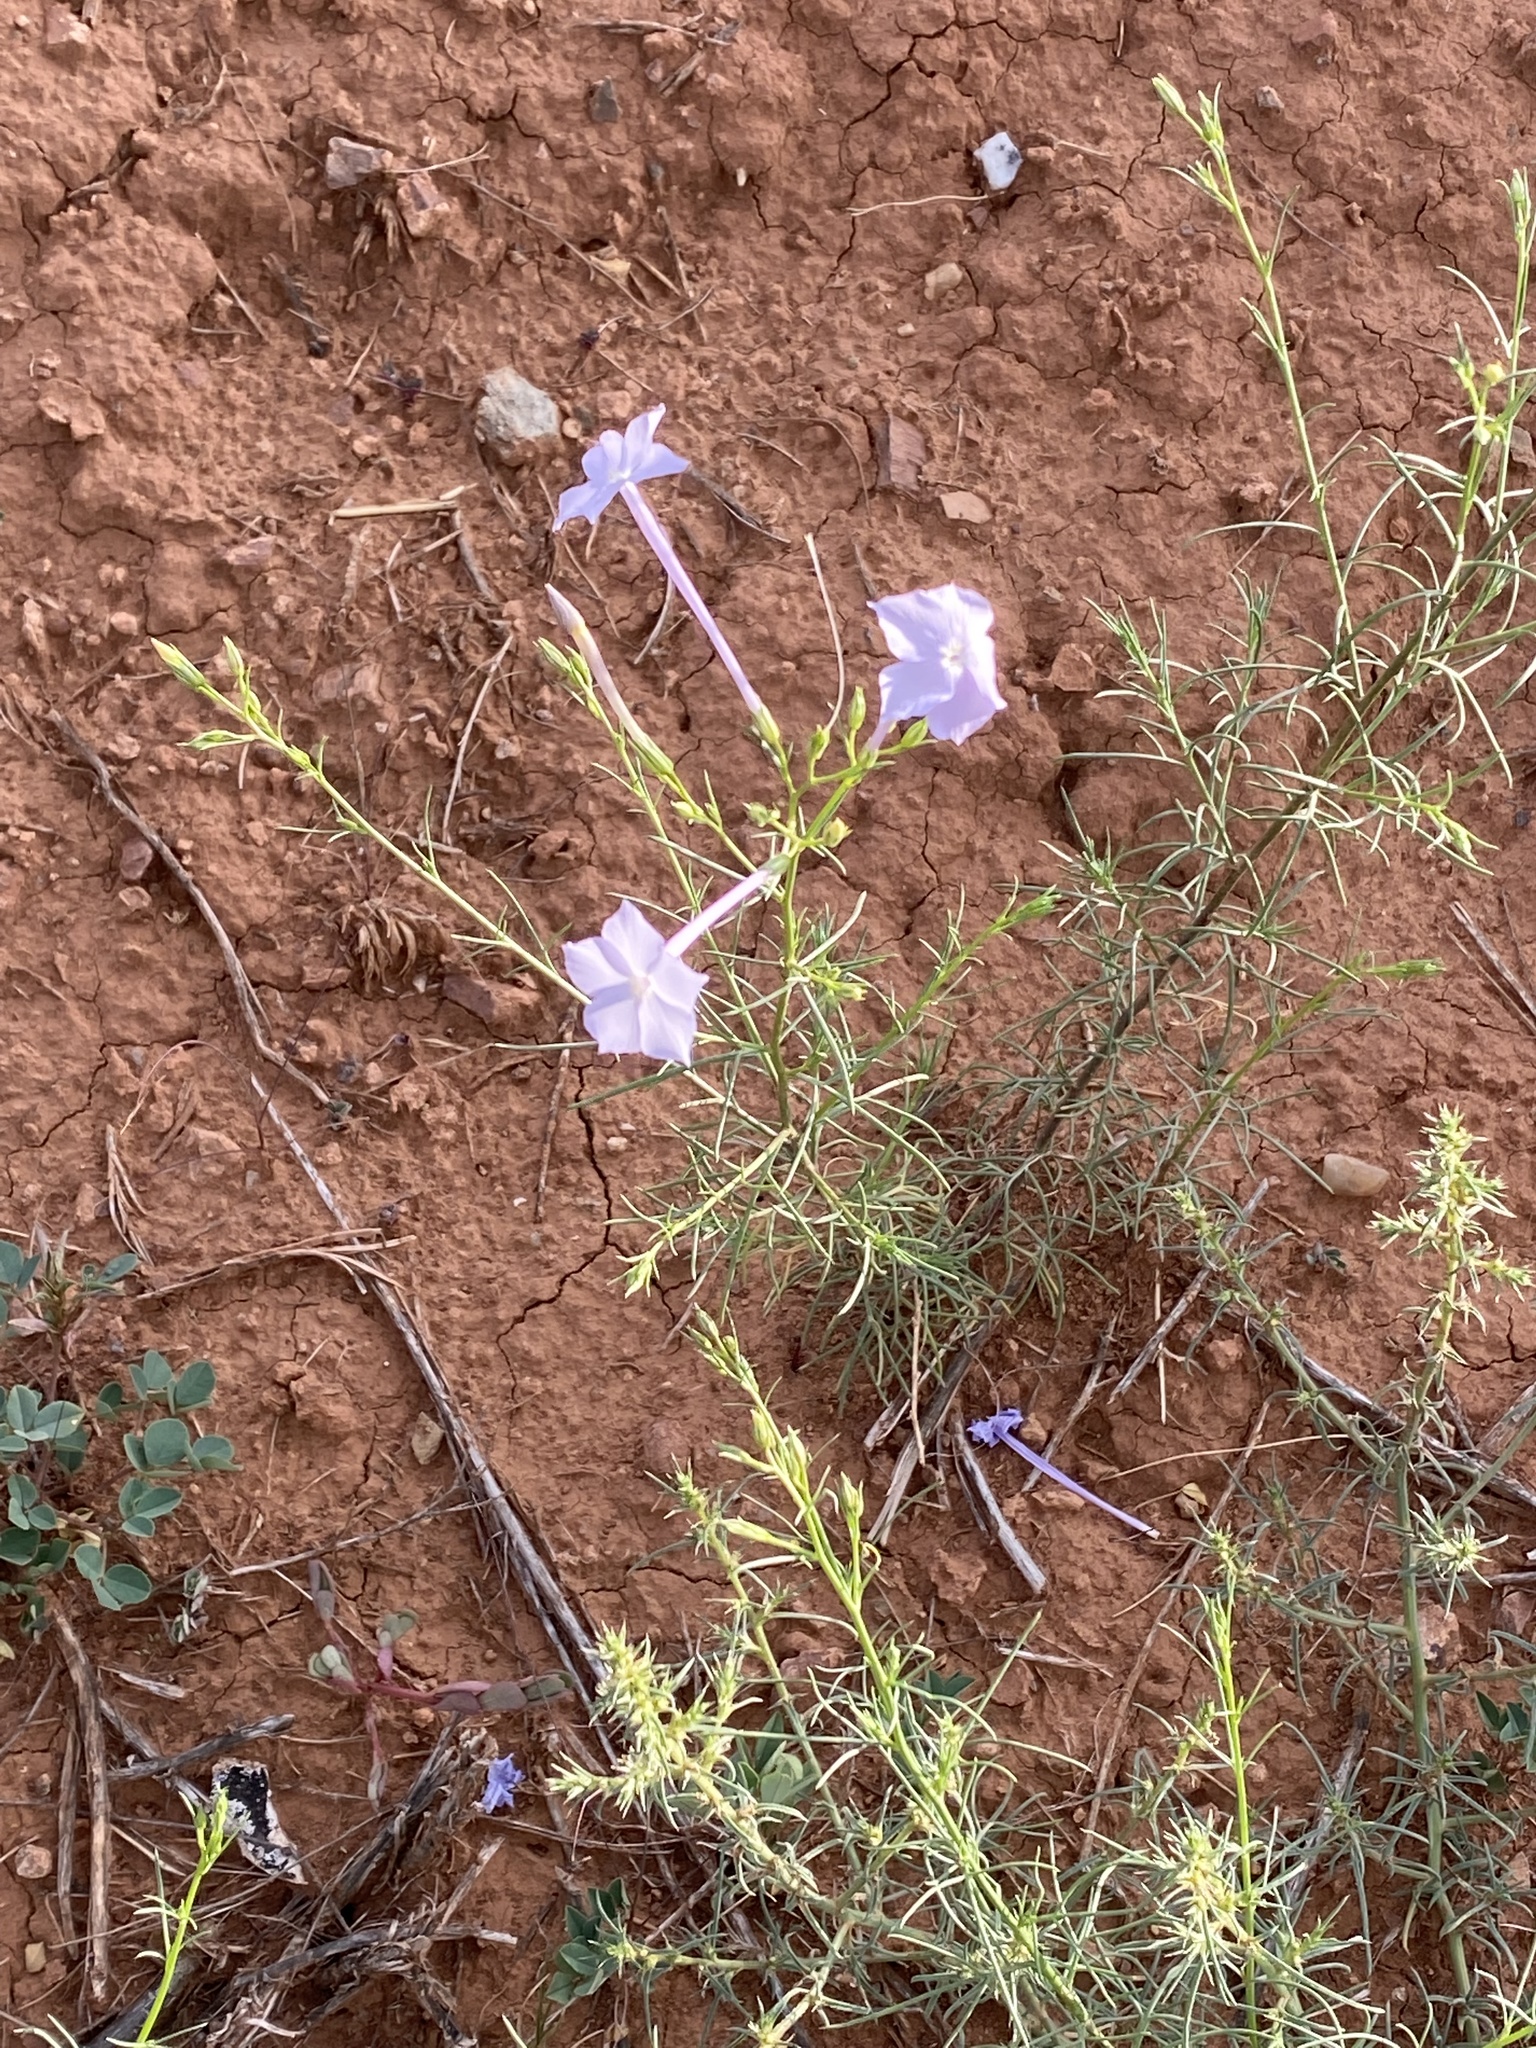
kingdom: Plantae
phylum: Tracheophyta
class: Magnoliopsida
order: Ericales
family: Polemoniaceae
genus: Ipomopsis
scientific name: Ipomopsis longiflora
